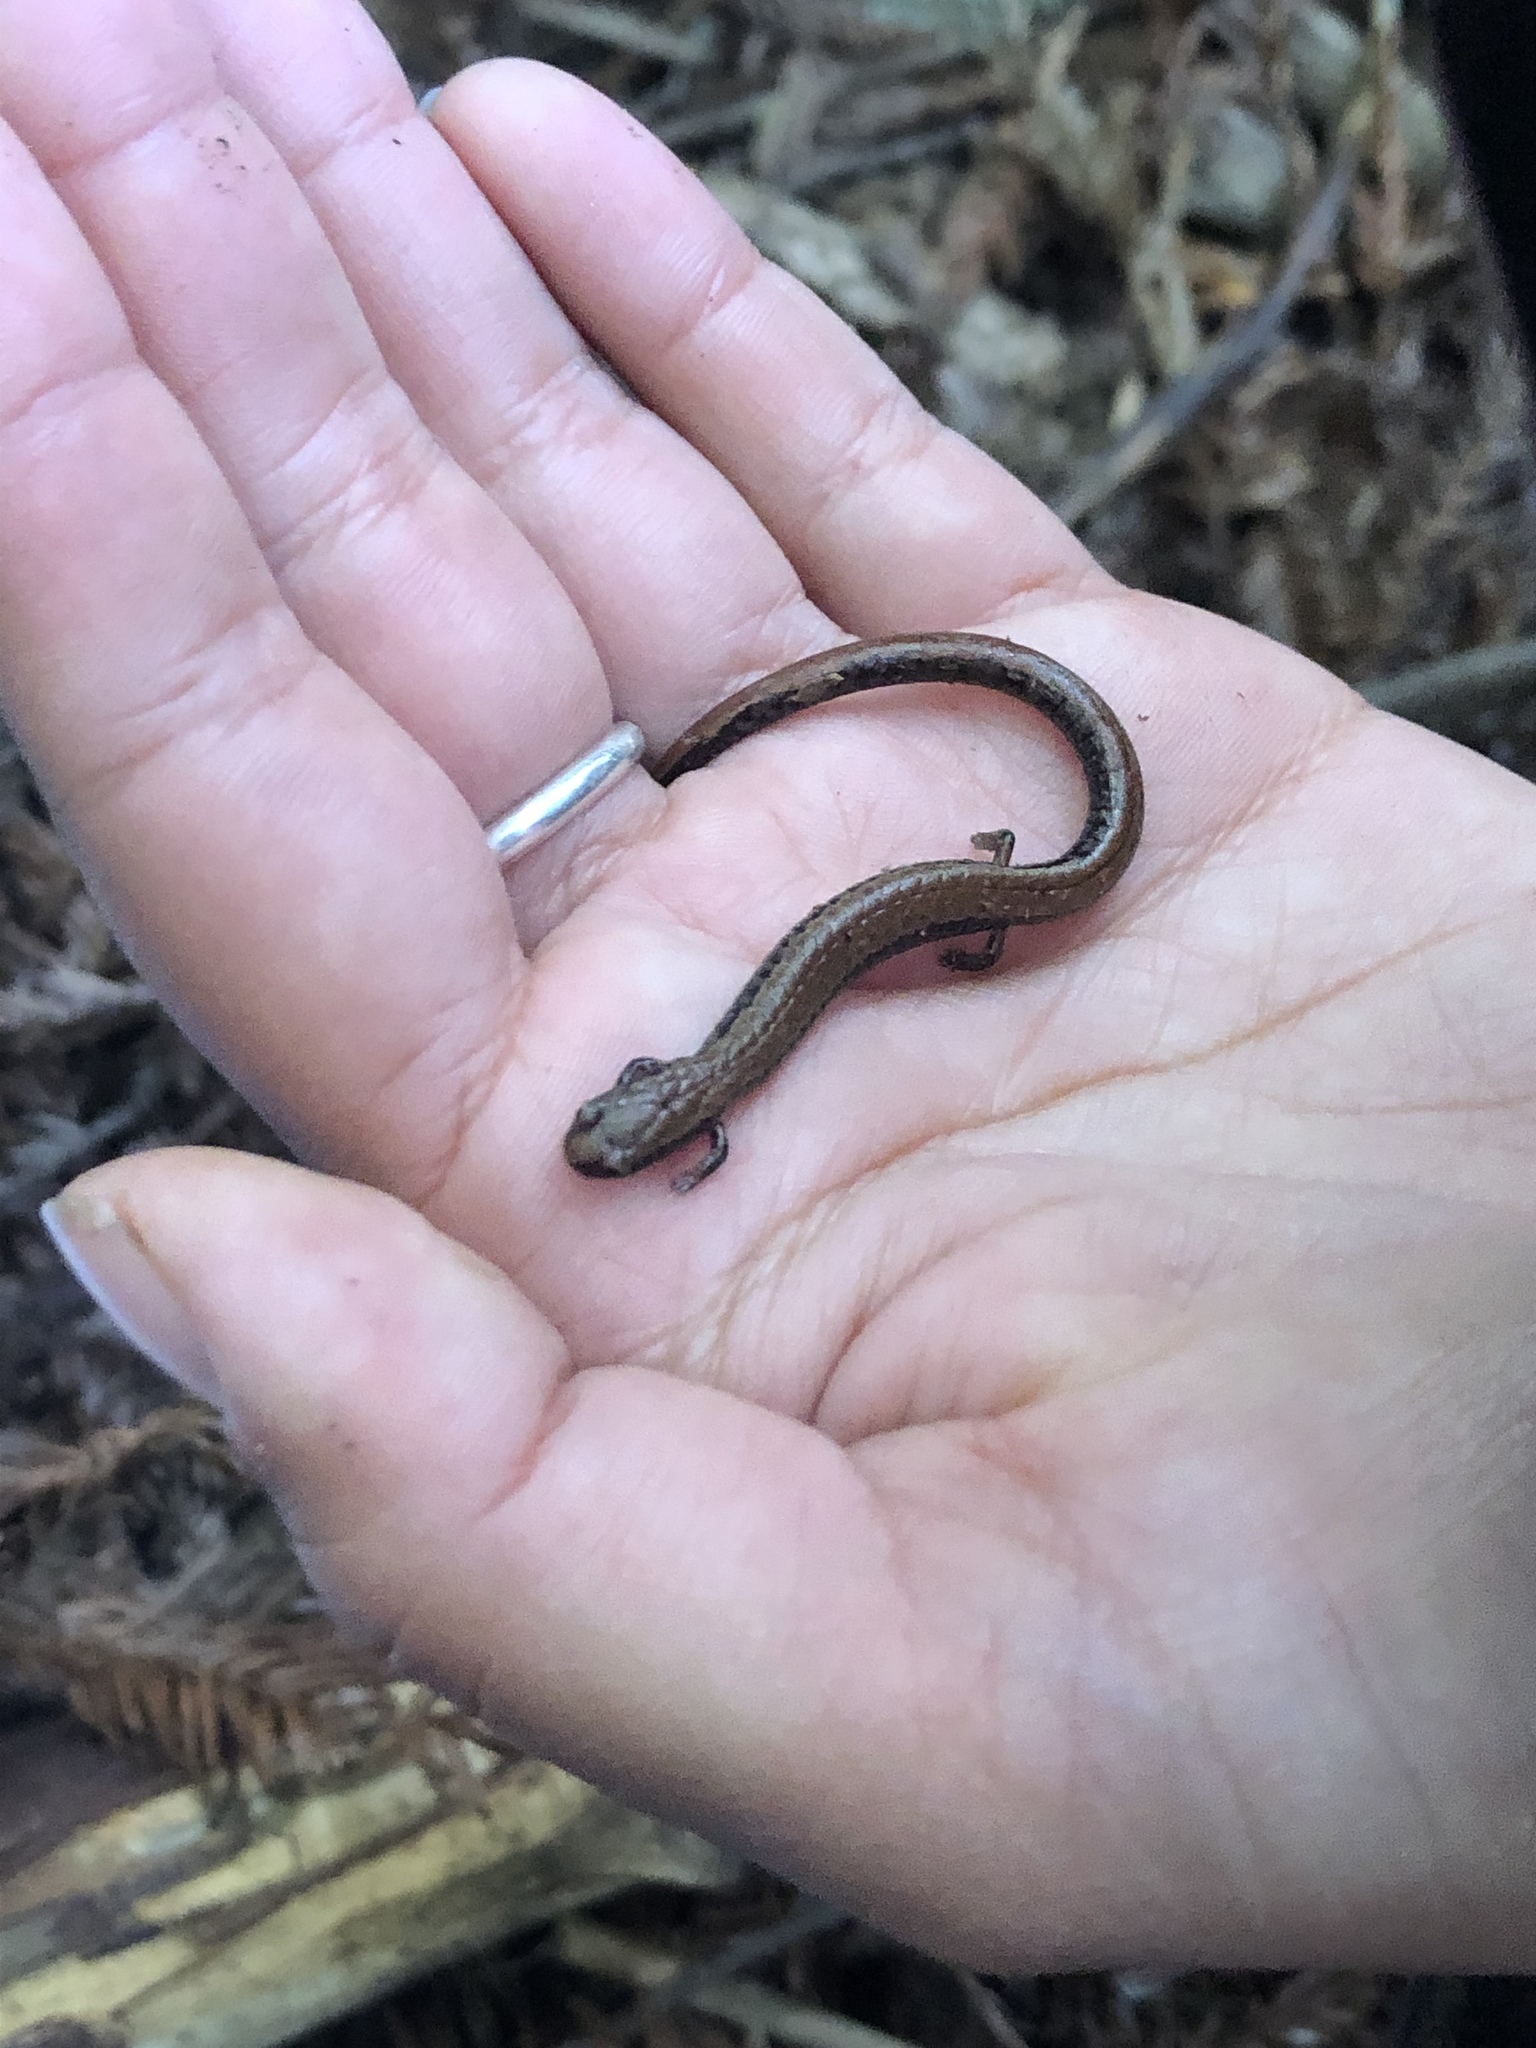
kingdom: Animalia
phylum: Chordata
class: Amphibia
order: Caudata
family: Plethodontidae
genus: Batrachoseps
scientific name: Batrachoseps attenuatus
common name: California slender salamander
